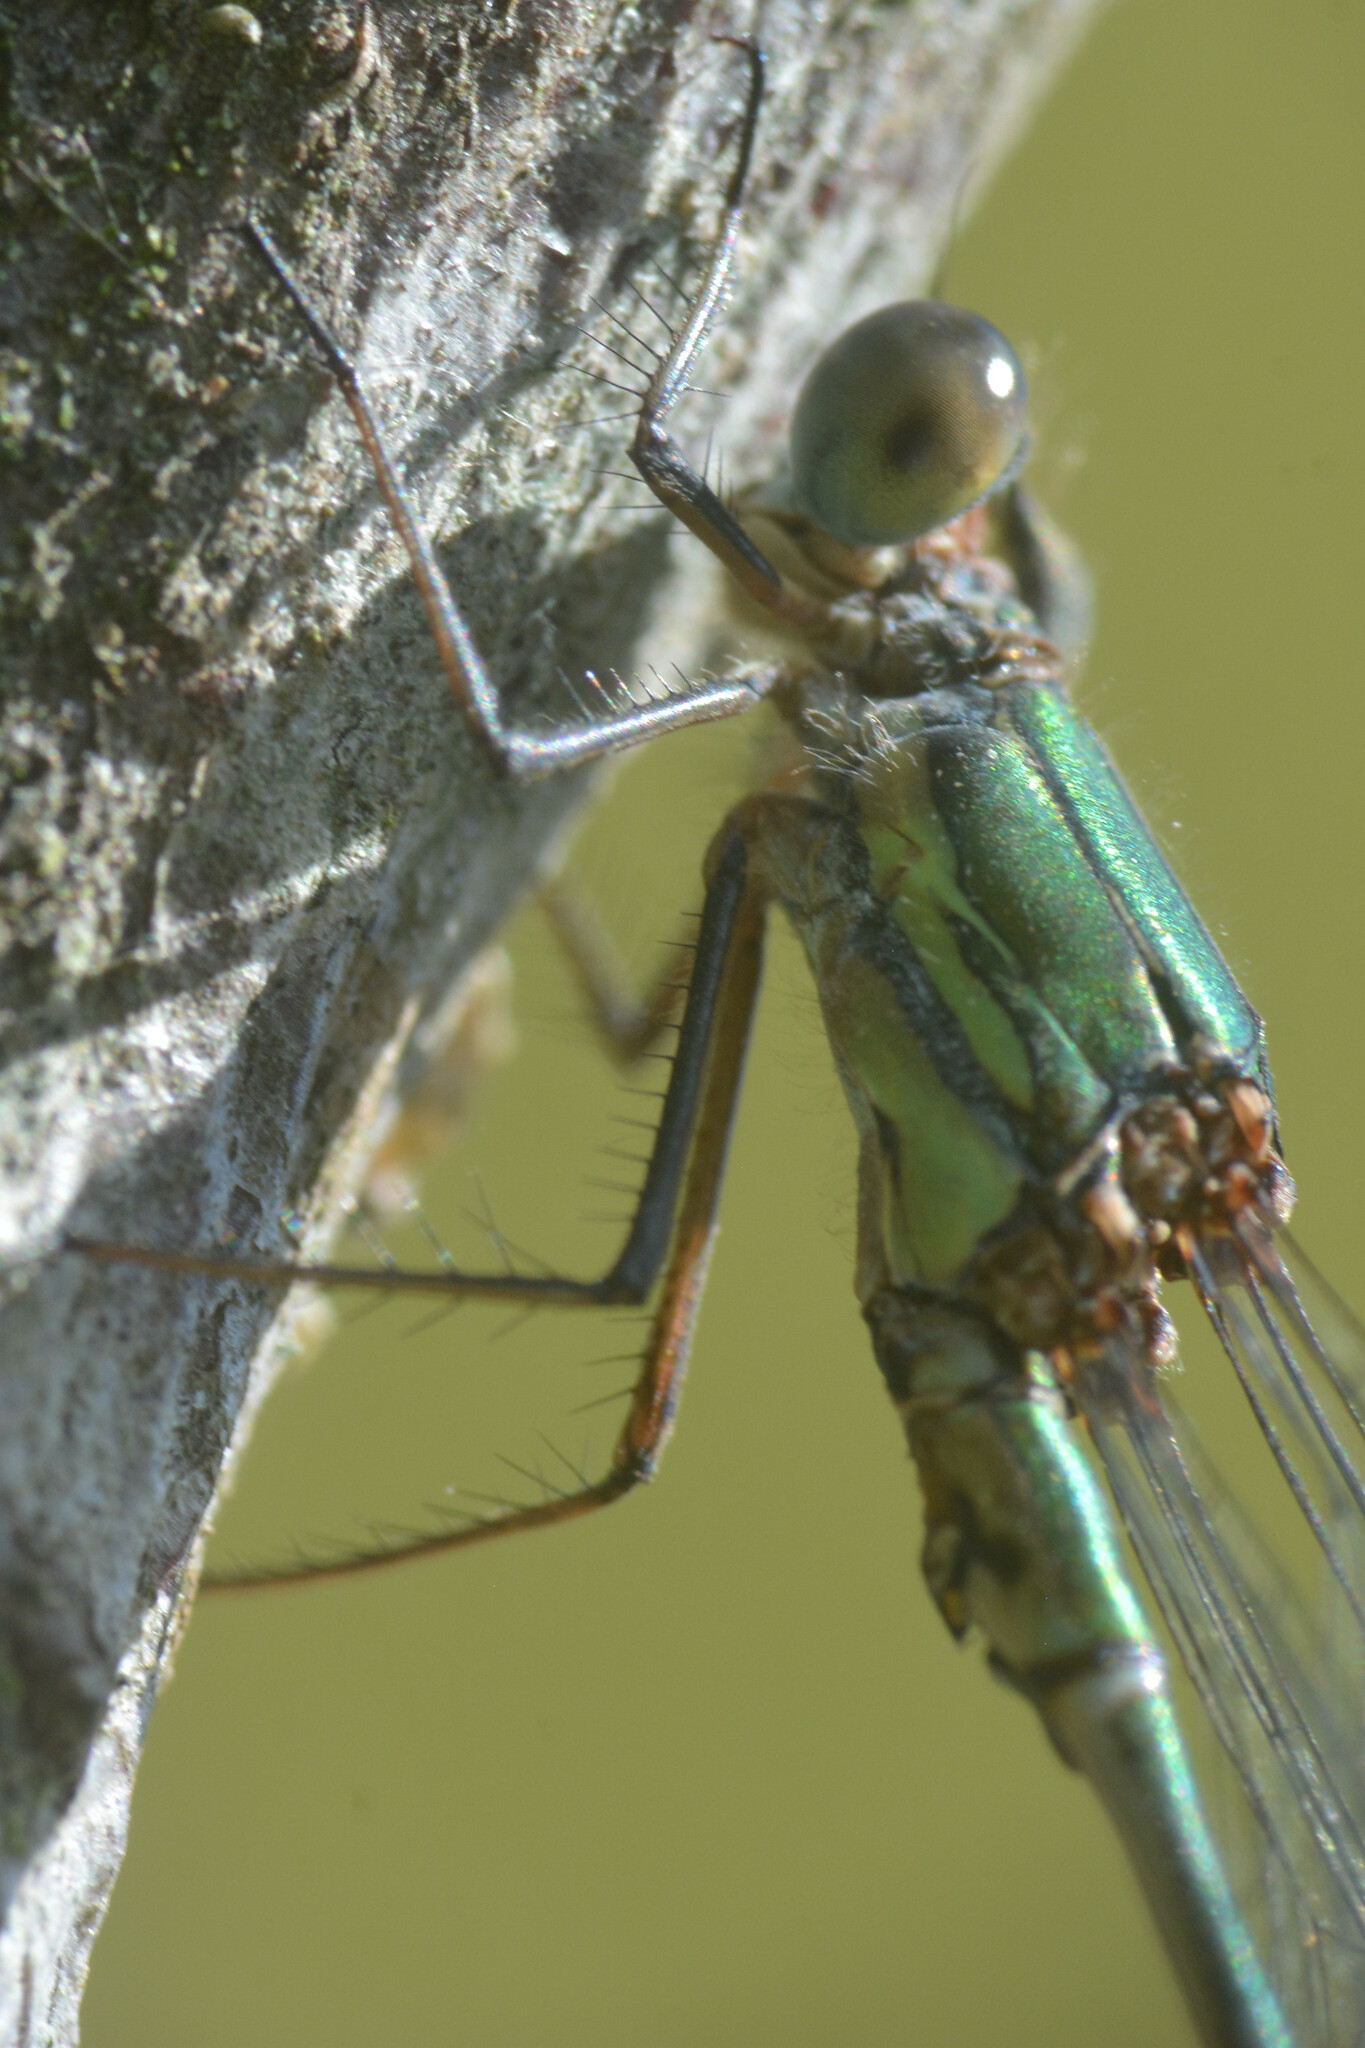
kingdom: Animalia
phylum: Arthropoda
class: Insecta
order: Odonata
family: Lestidae
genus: Chalcolestes
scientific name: Chalcolestes viridis
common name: Green emerald damselfly
